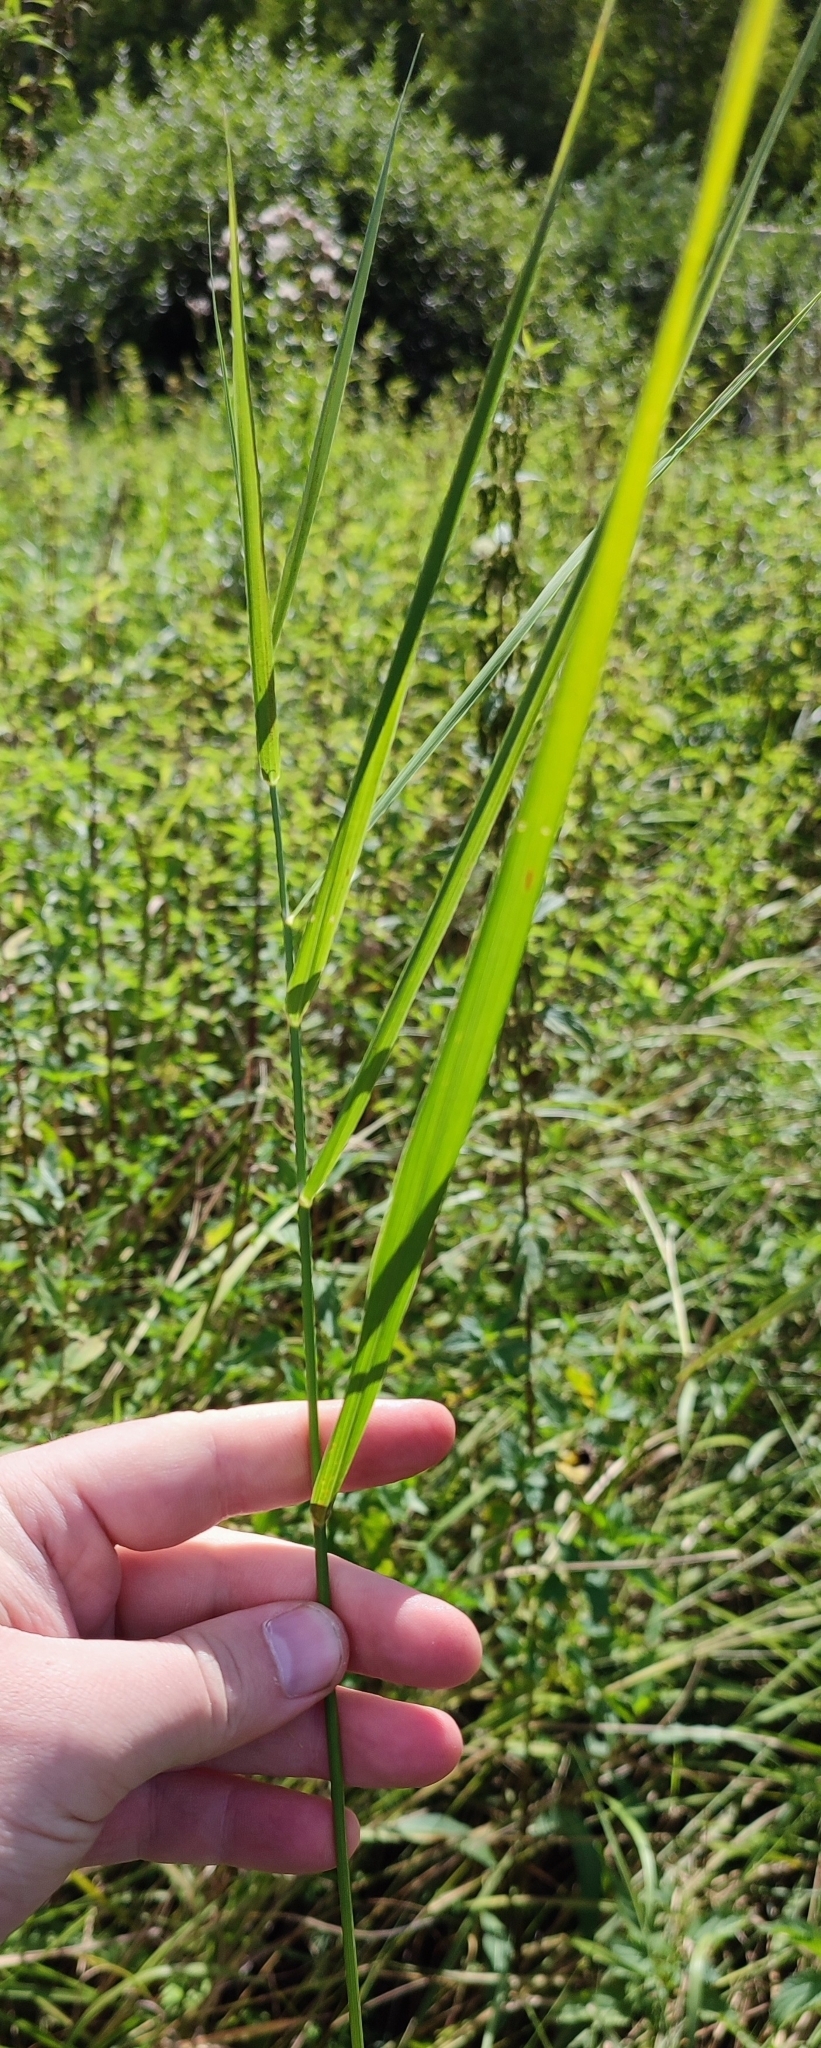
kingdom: Plantae
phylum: Tracheophyta
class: Liliopsida
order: Poales
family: Poaceae
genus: Phragmites
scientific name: Phragmites australis
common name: Common reed
